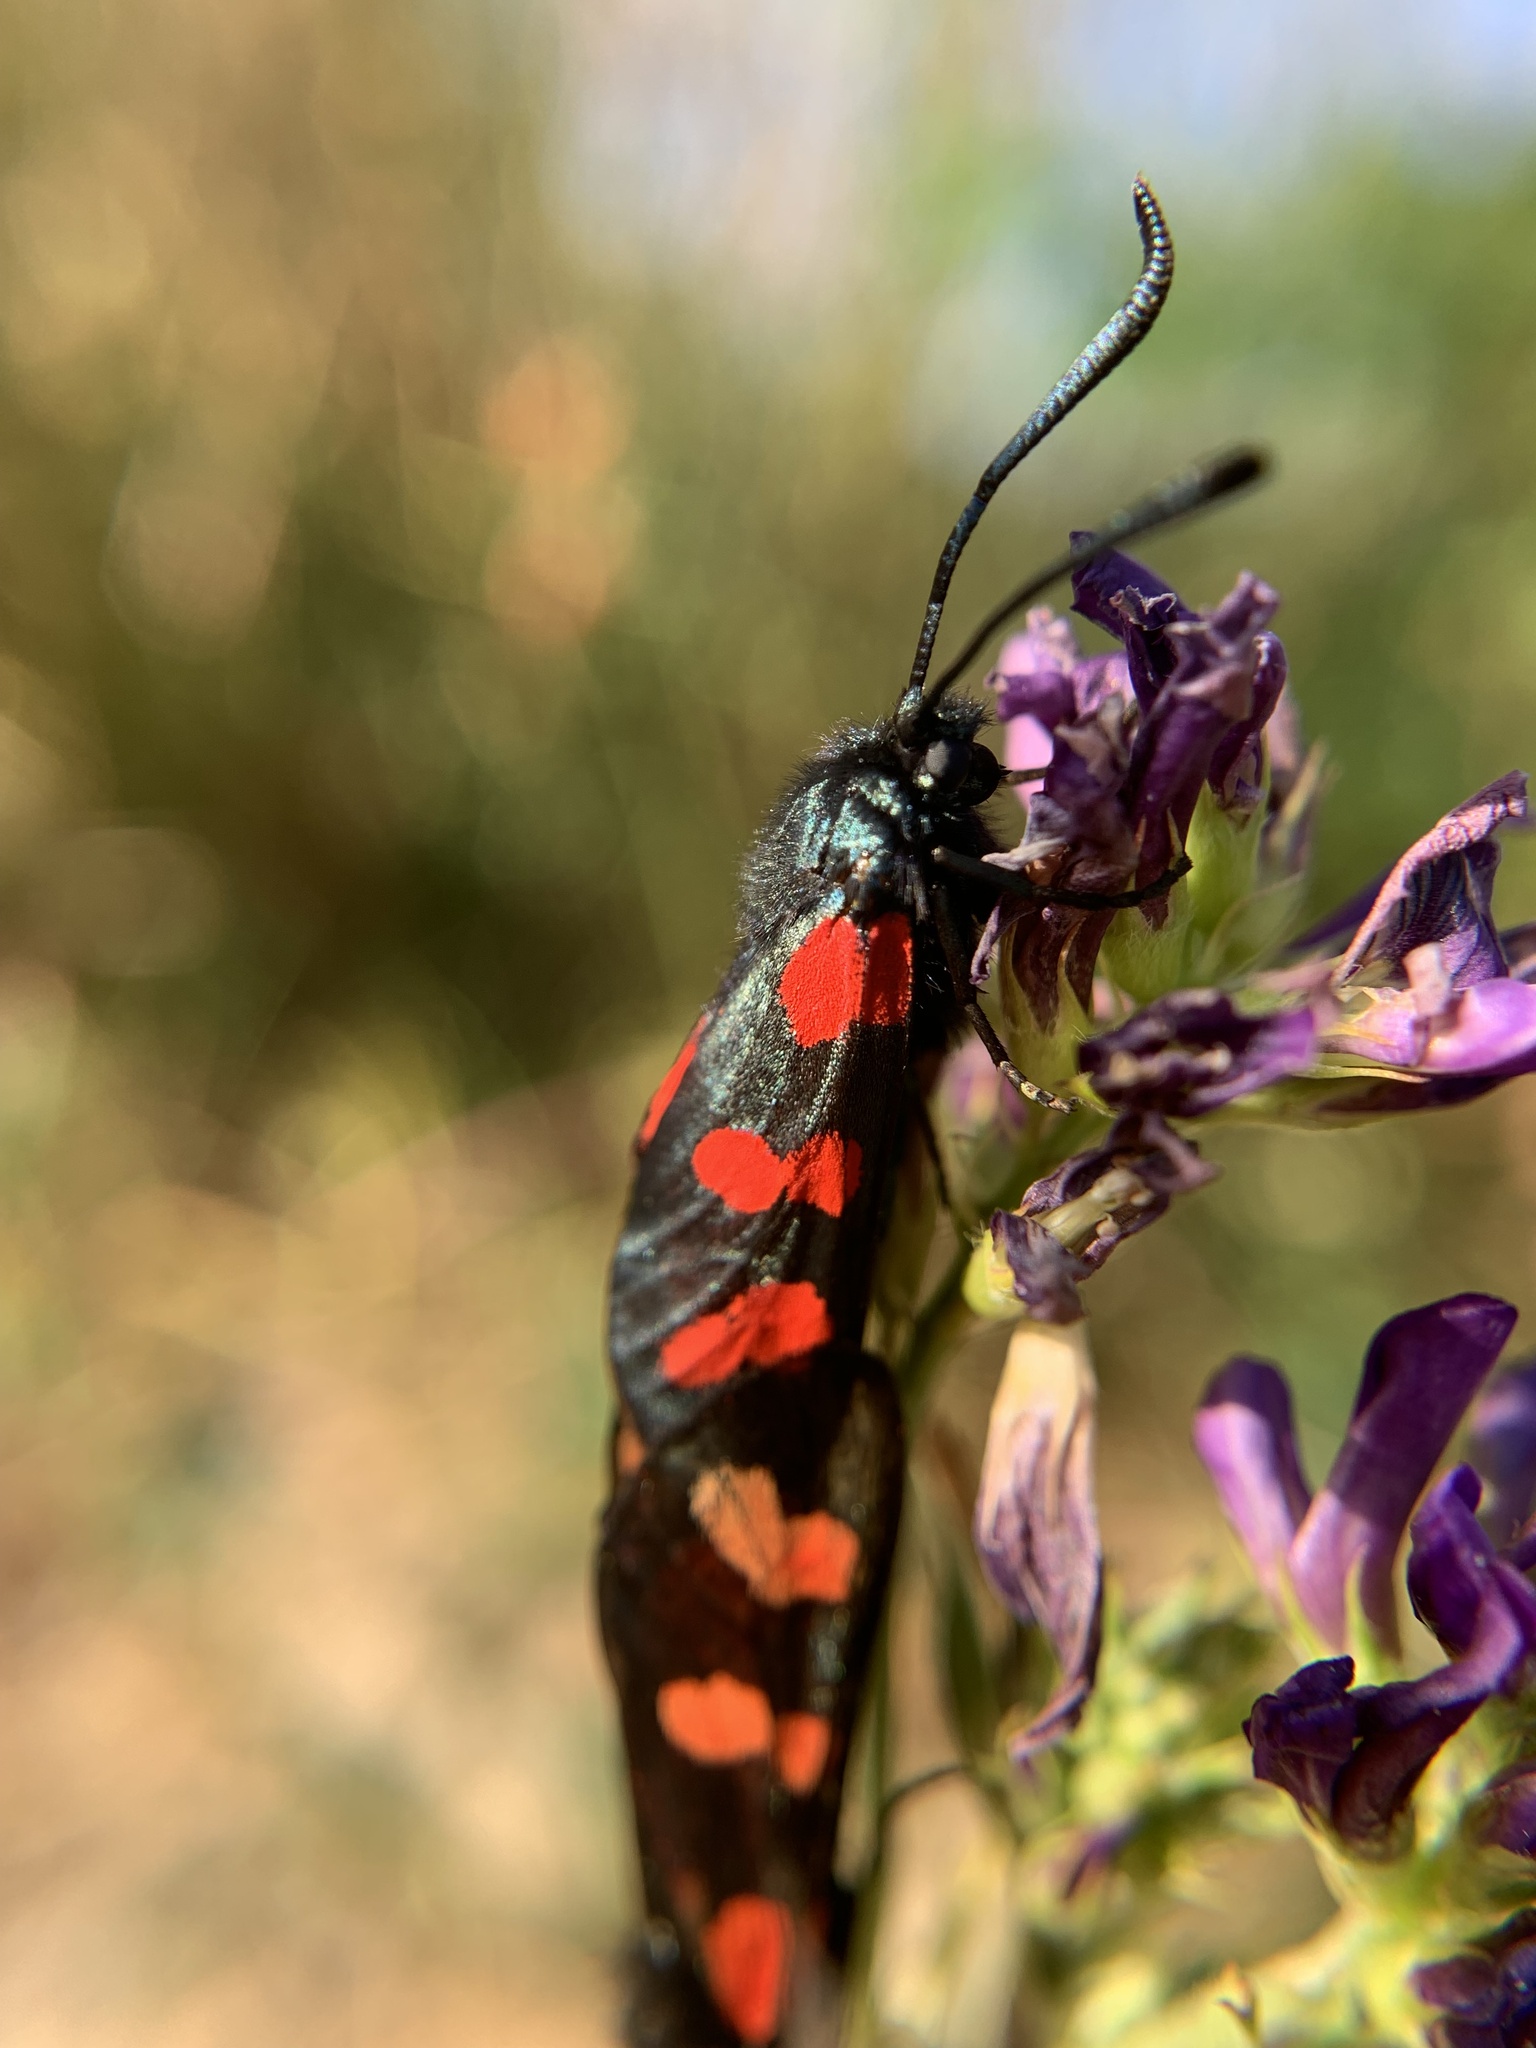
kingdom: Animalia
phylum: Arthropoda
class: Insecta
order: Lepidoptera
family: Zygaenidae
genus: Zygaena
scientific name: Zygaena filipendulae
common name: Six-spot burnet
